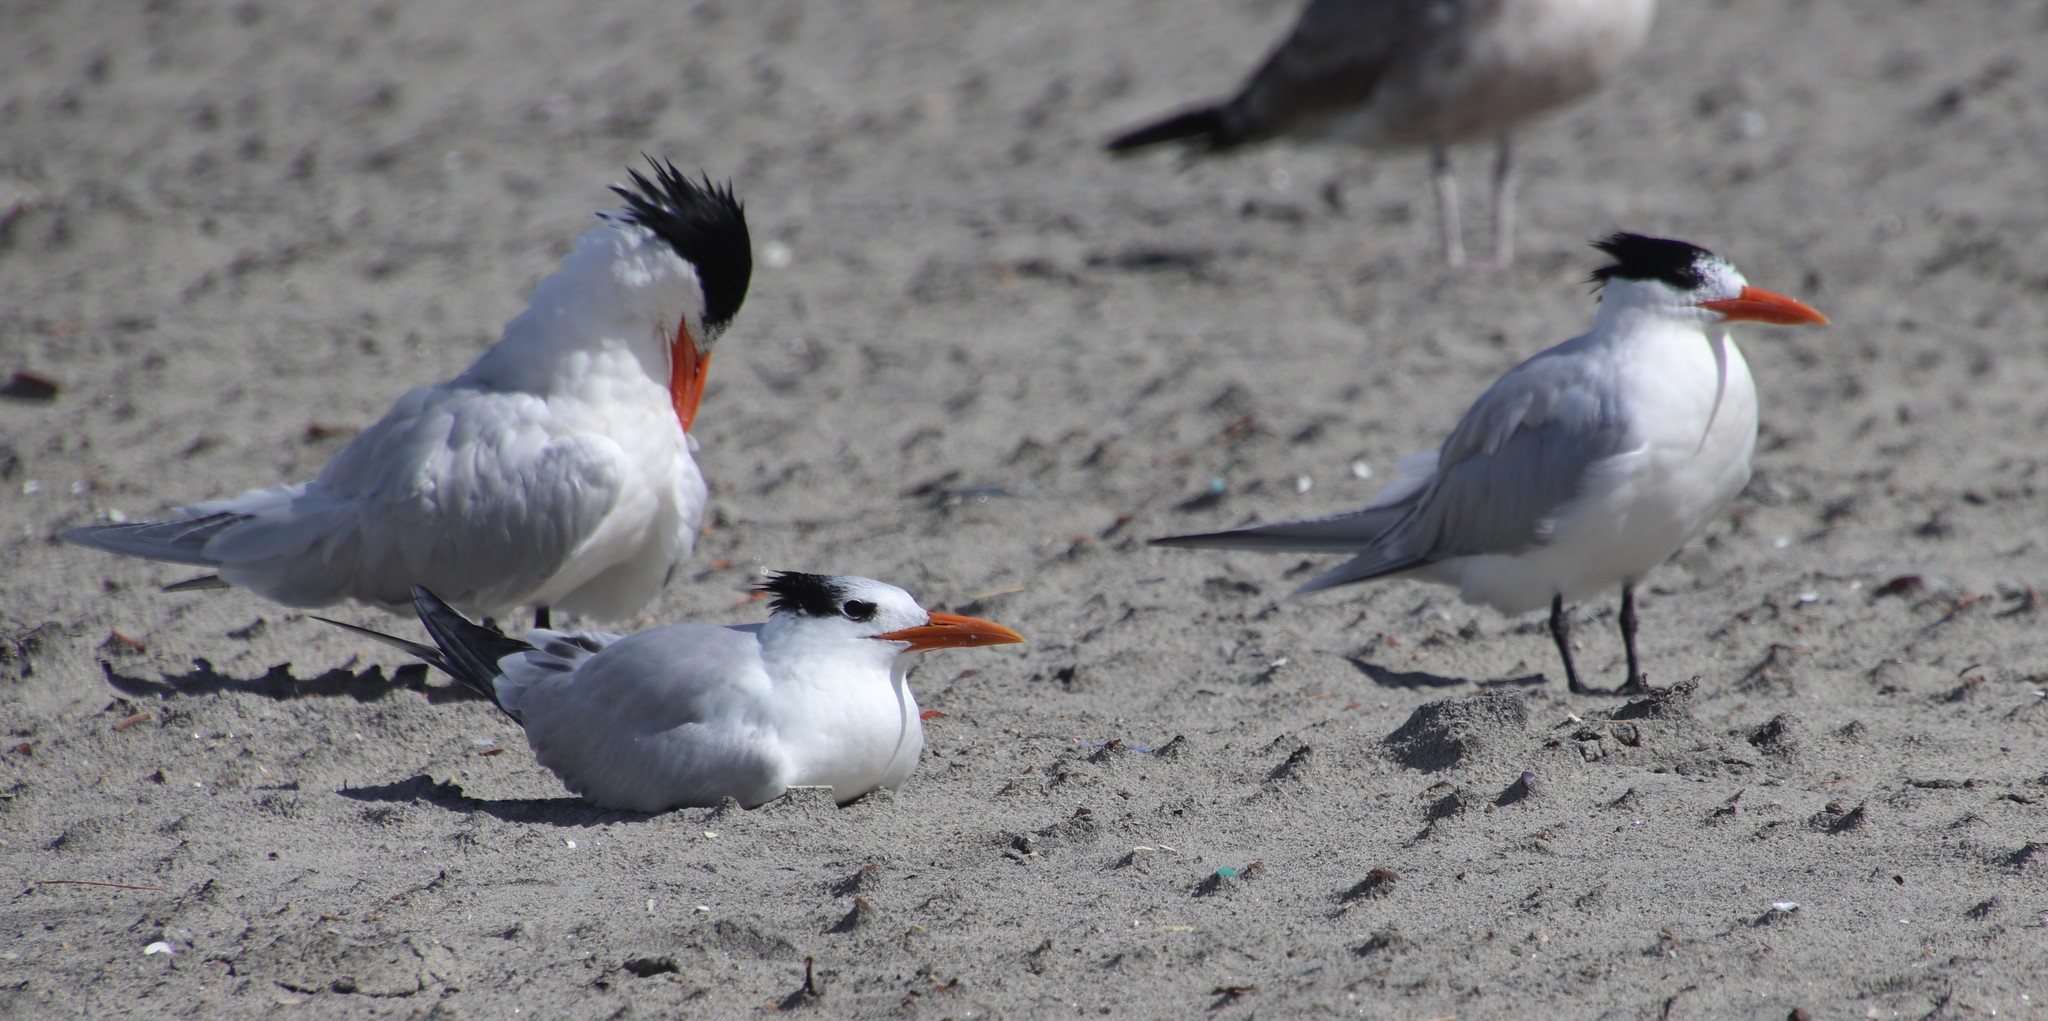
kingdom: Animalia
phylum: Chordata
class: Aves
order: Charadriiformes
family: Laridae
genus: Thalasseus
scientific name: Thalasseus maximus
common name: Royal tern
